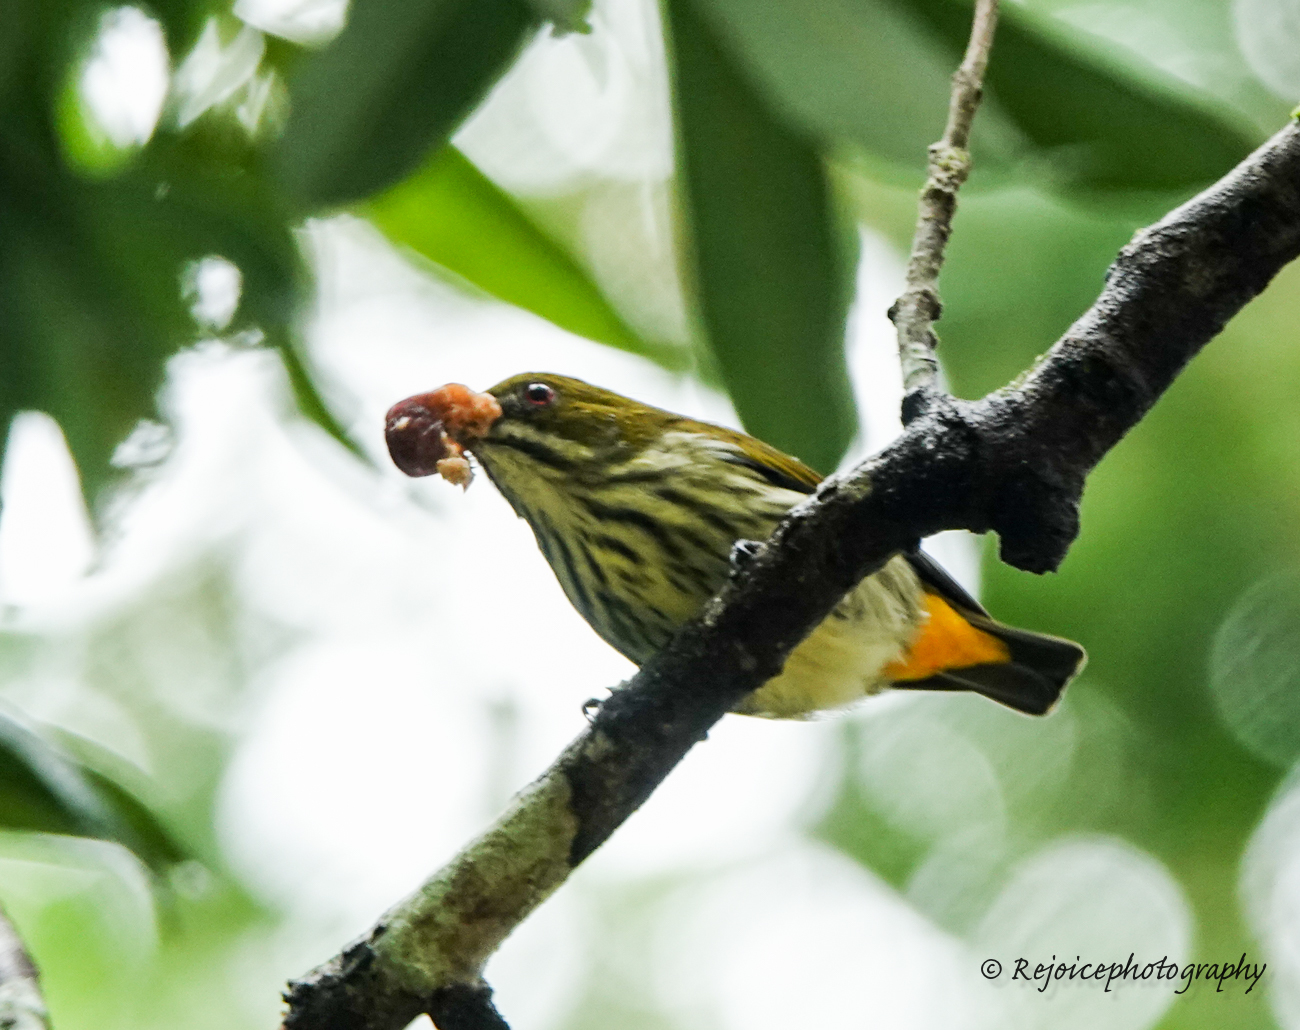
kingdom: Animalia
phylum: Chordata
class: Aves
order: Passeriformes
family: Dicaeidae
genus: Dicaeum
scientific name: Dicaeum chrysorrheum
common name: Yellow-vented flowerpecker
